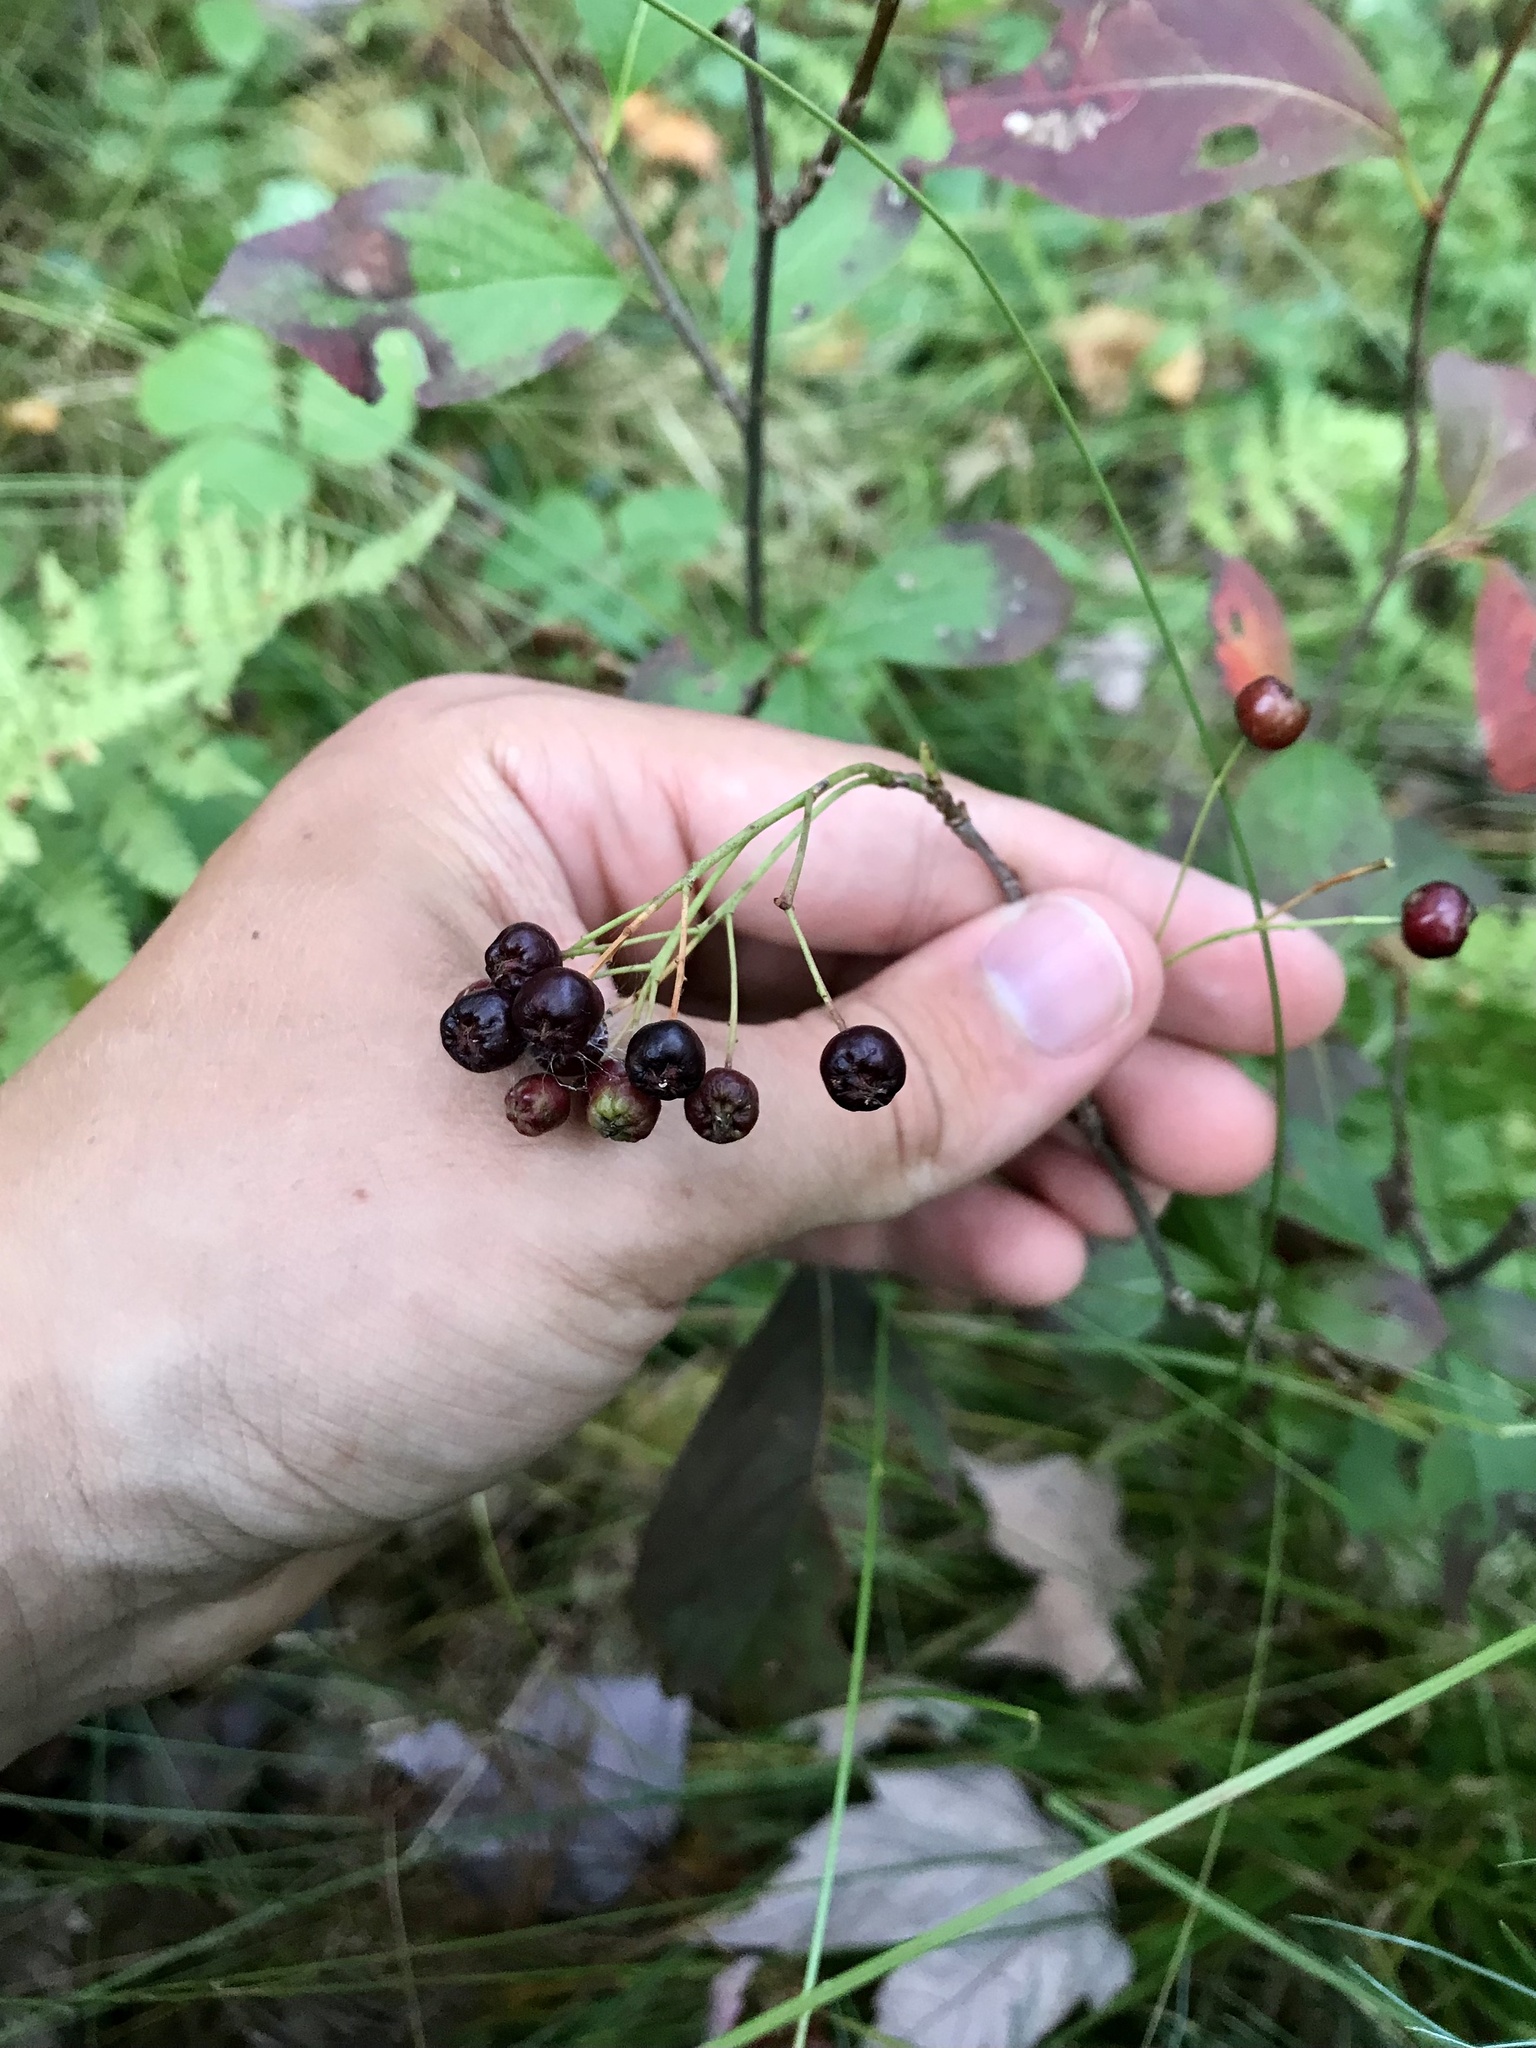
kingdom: Plantae
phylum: Tracheophyta
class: Magnoliopsida
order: Rosales
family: Rosaceae
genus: Aronia
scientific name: Aronia melanocarpa
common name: Black chokeberry
